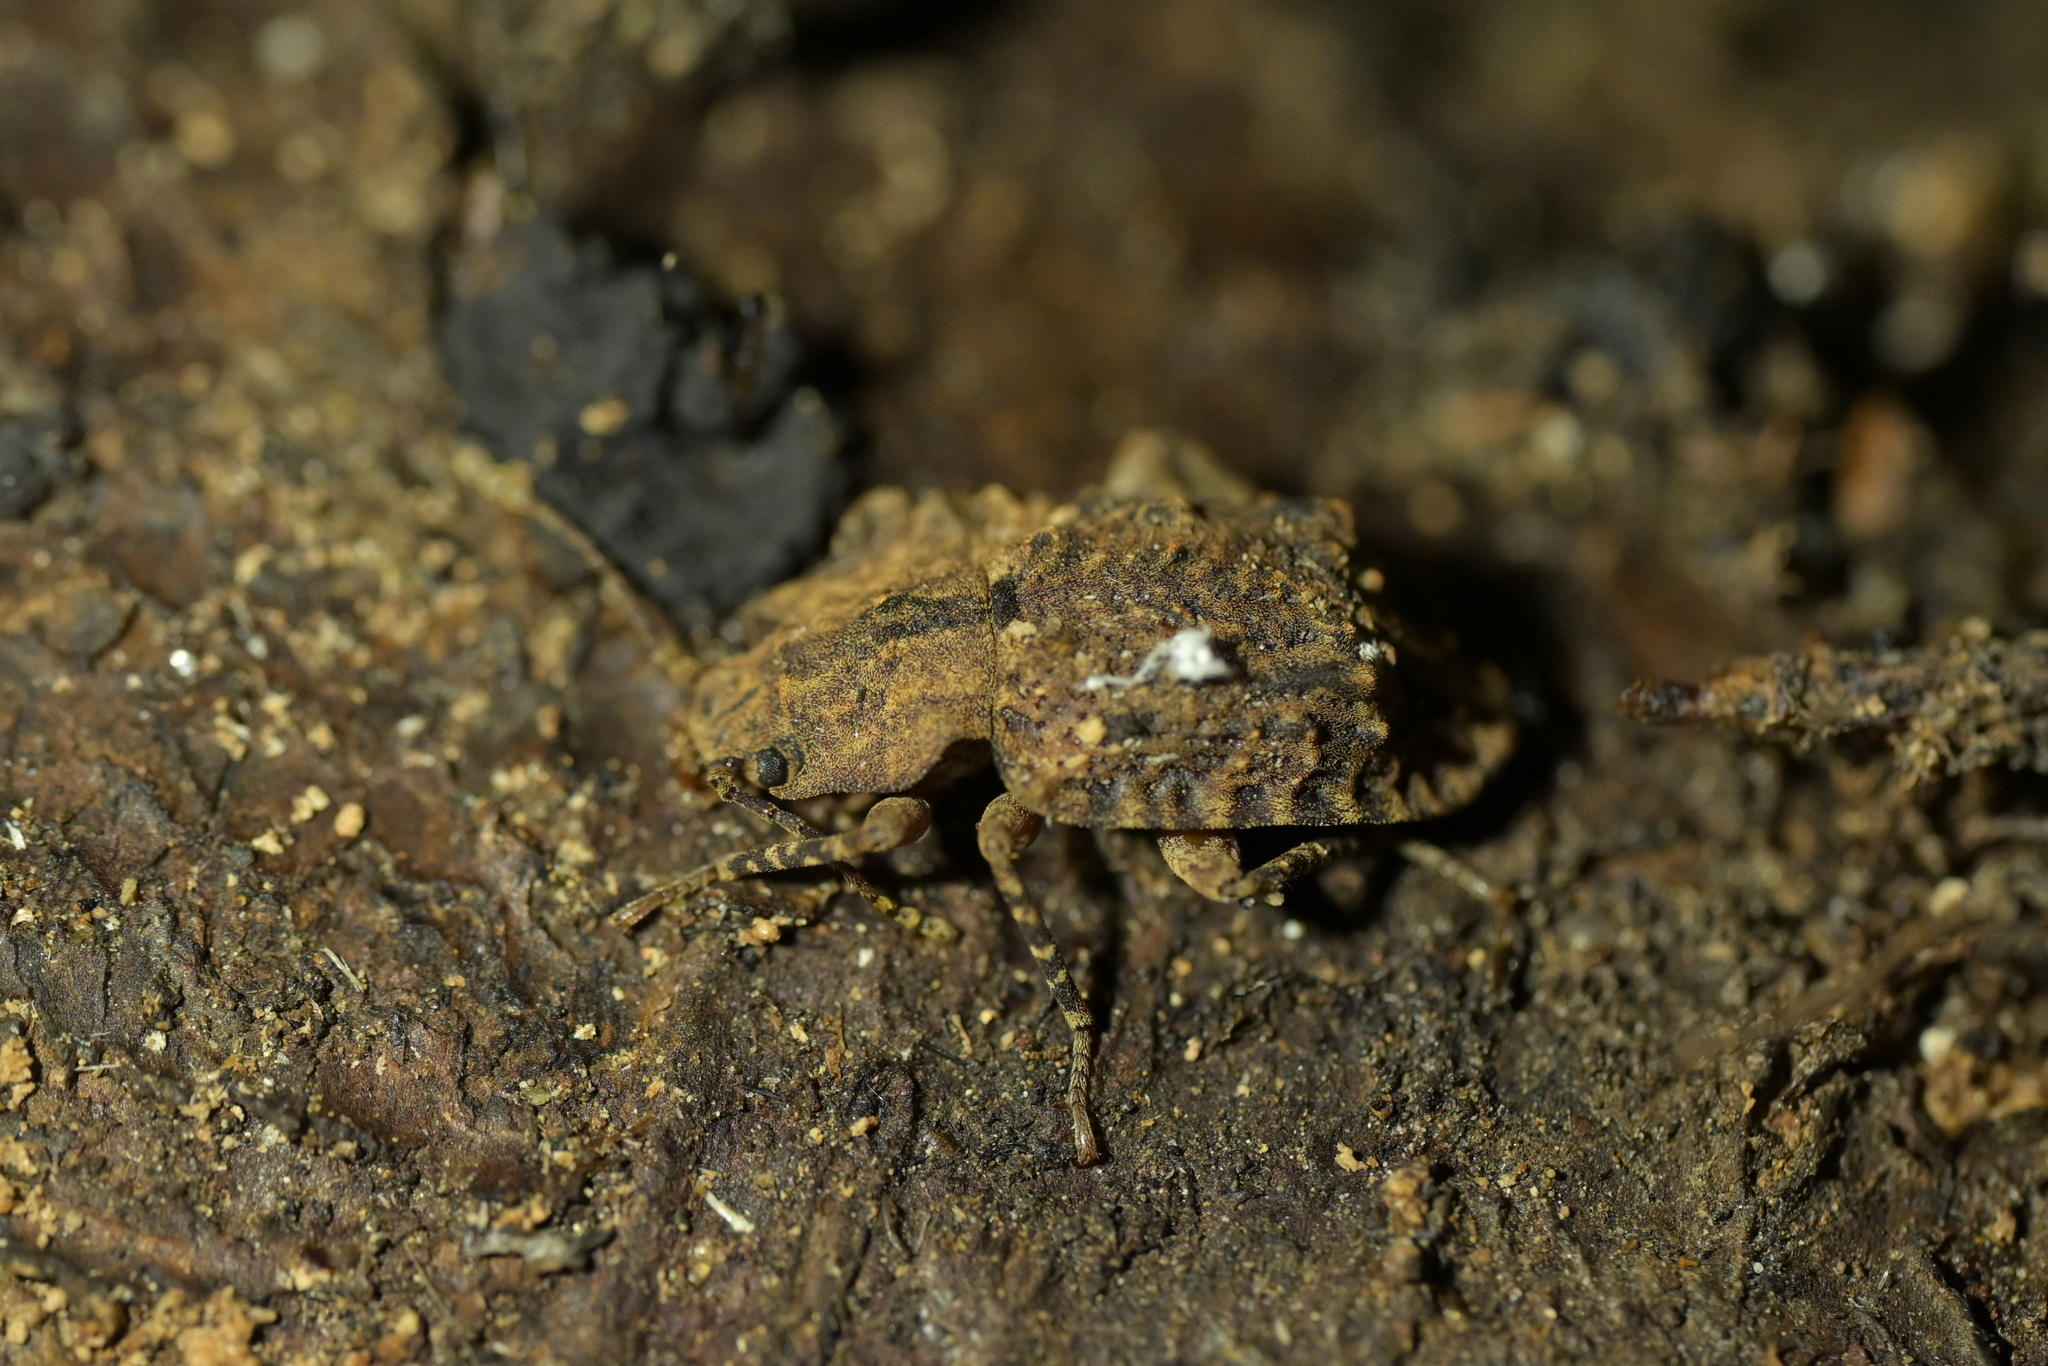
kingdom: Animalia
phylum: Arthropoda
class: Insecta
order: Coleoptera
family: Ulodidae
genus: Syrphetodes
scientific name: Syrphetodes marginatus
